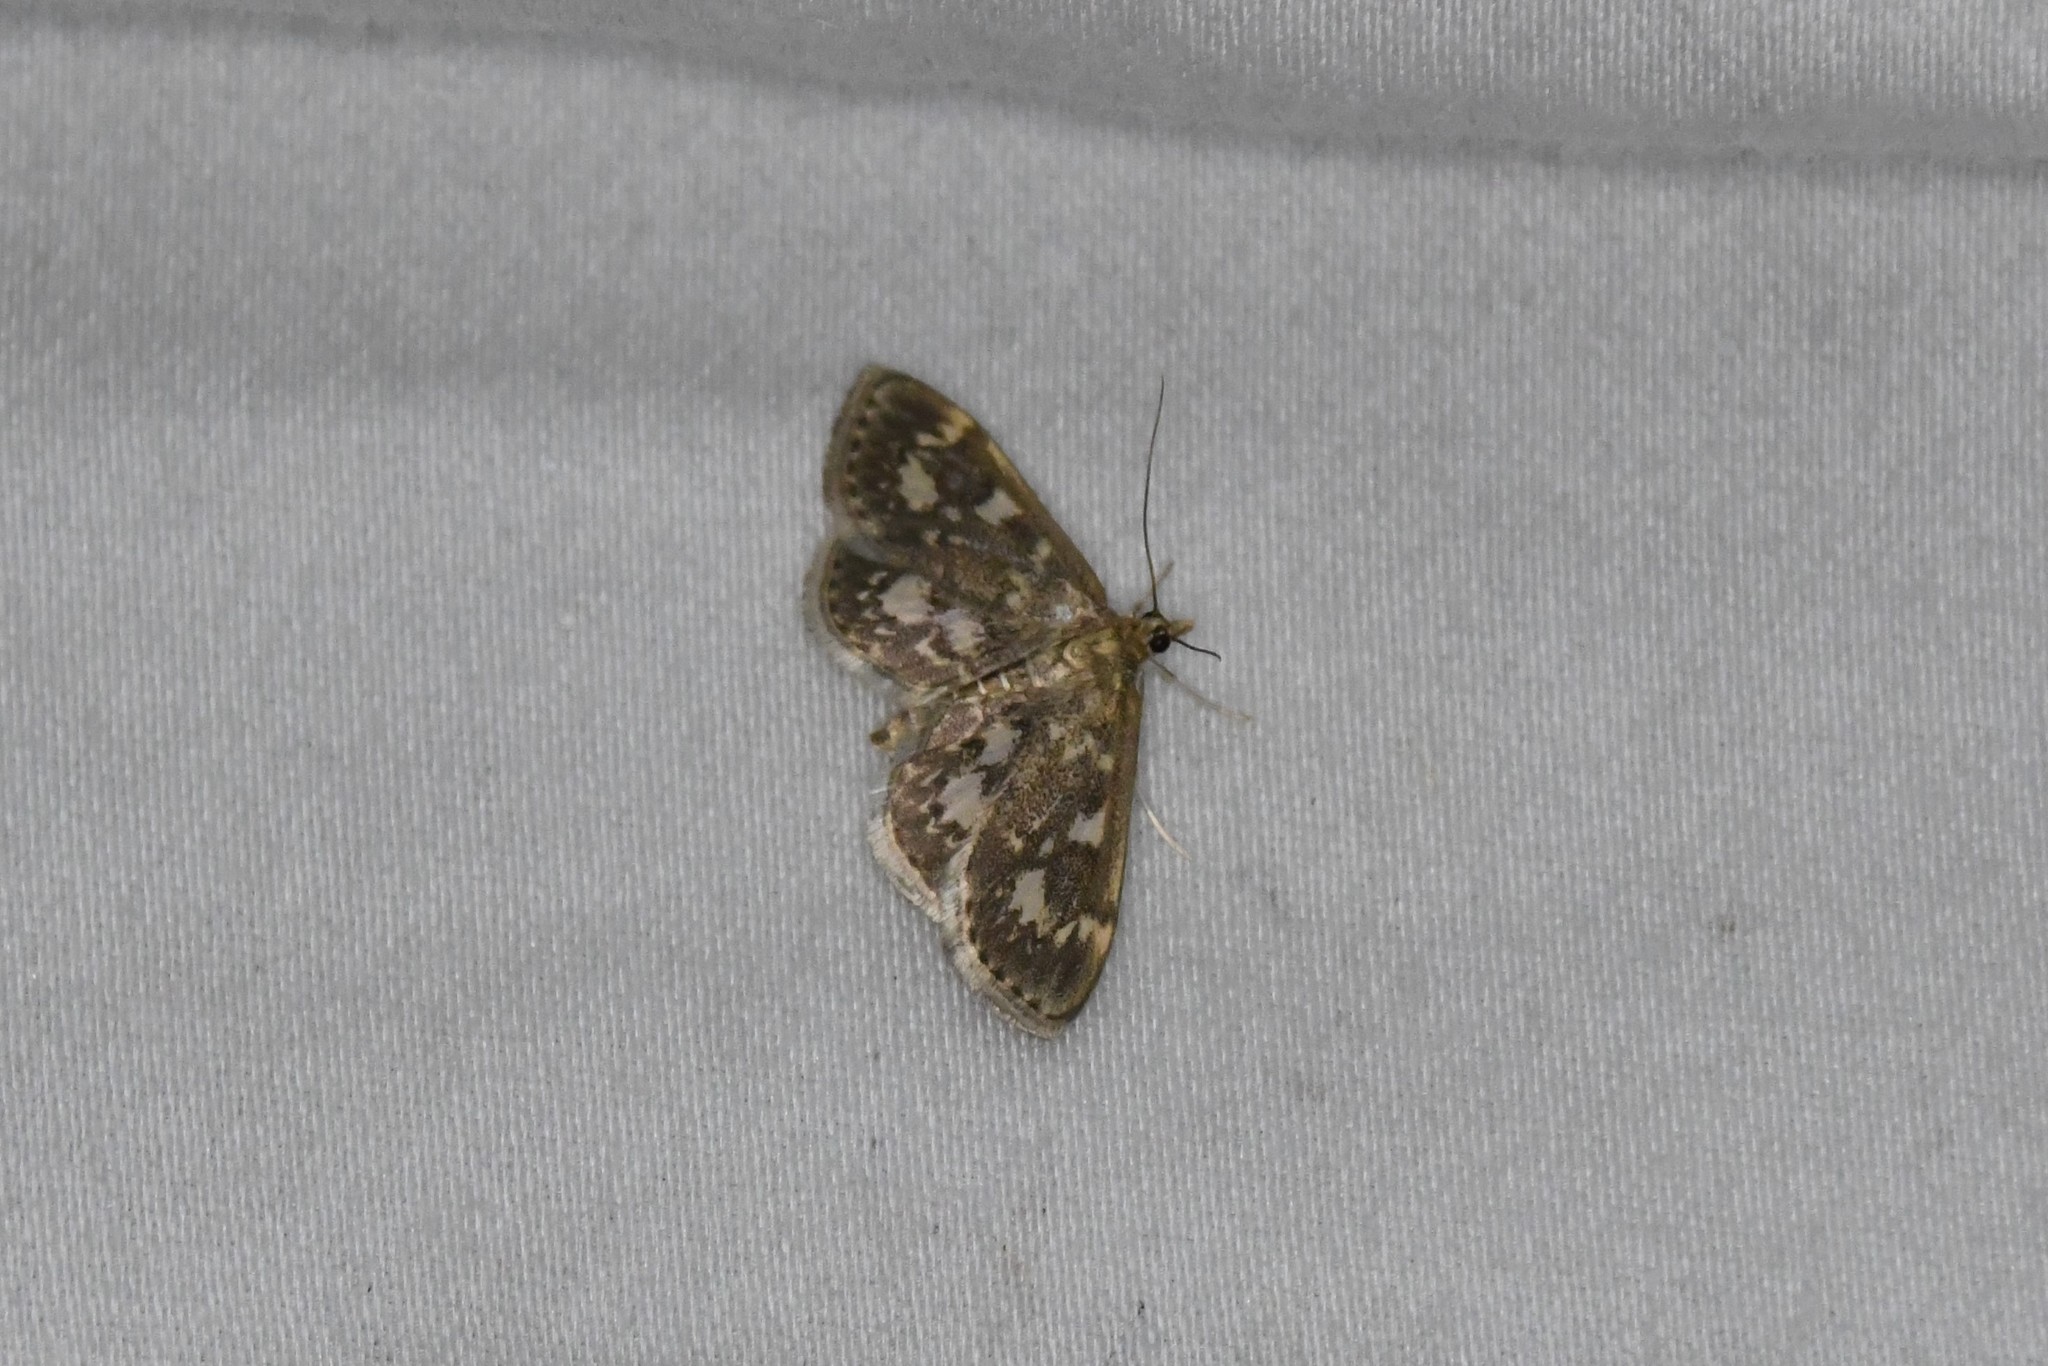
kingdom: Animalia
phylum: Arthropoda
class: Insecta
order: Lepidoptera
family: Crambidae
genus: Anania
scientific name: Anania
